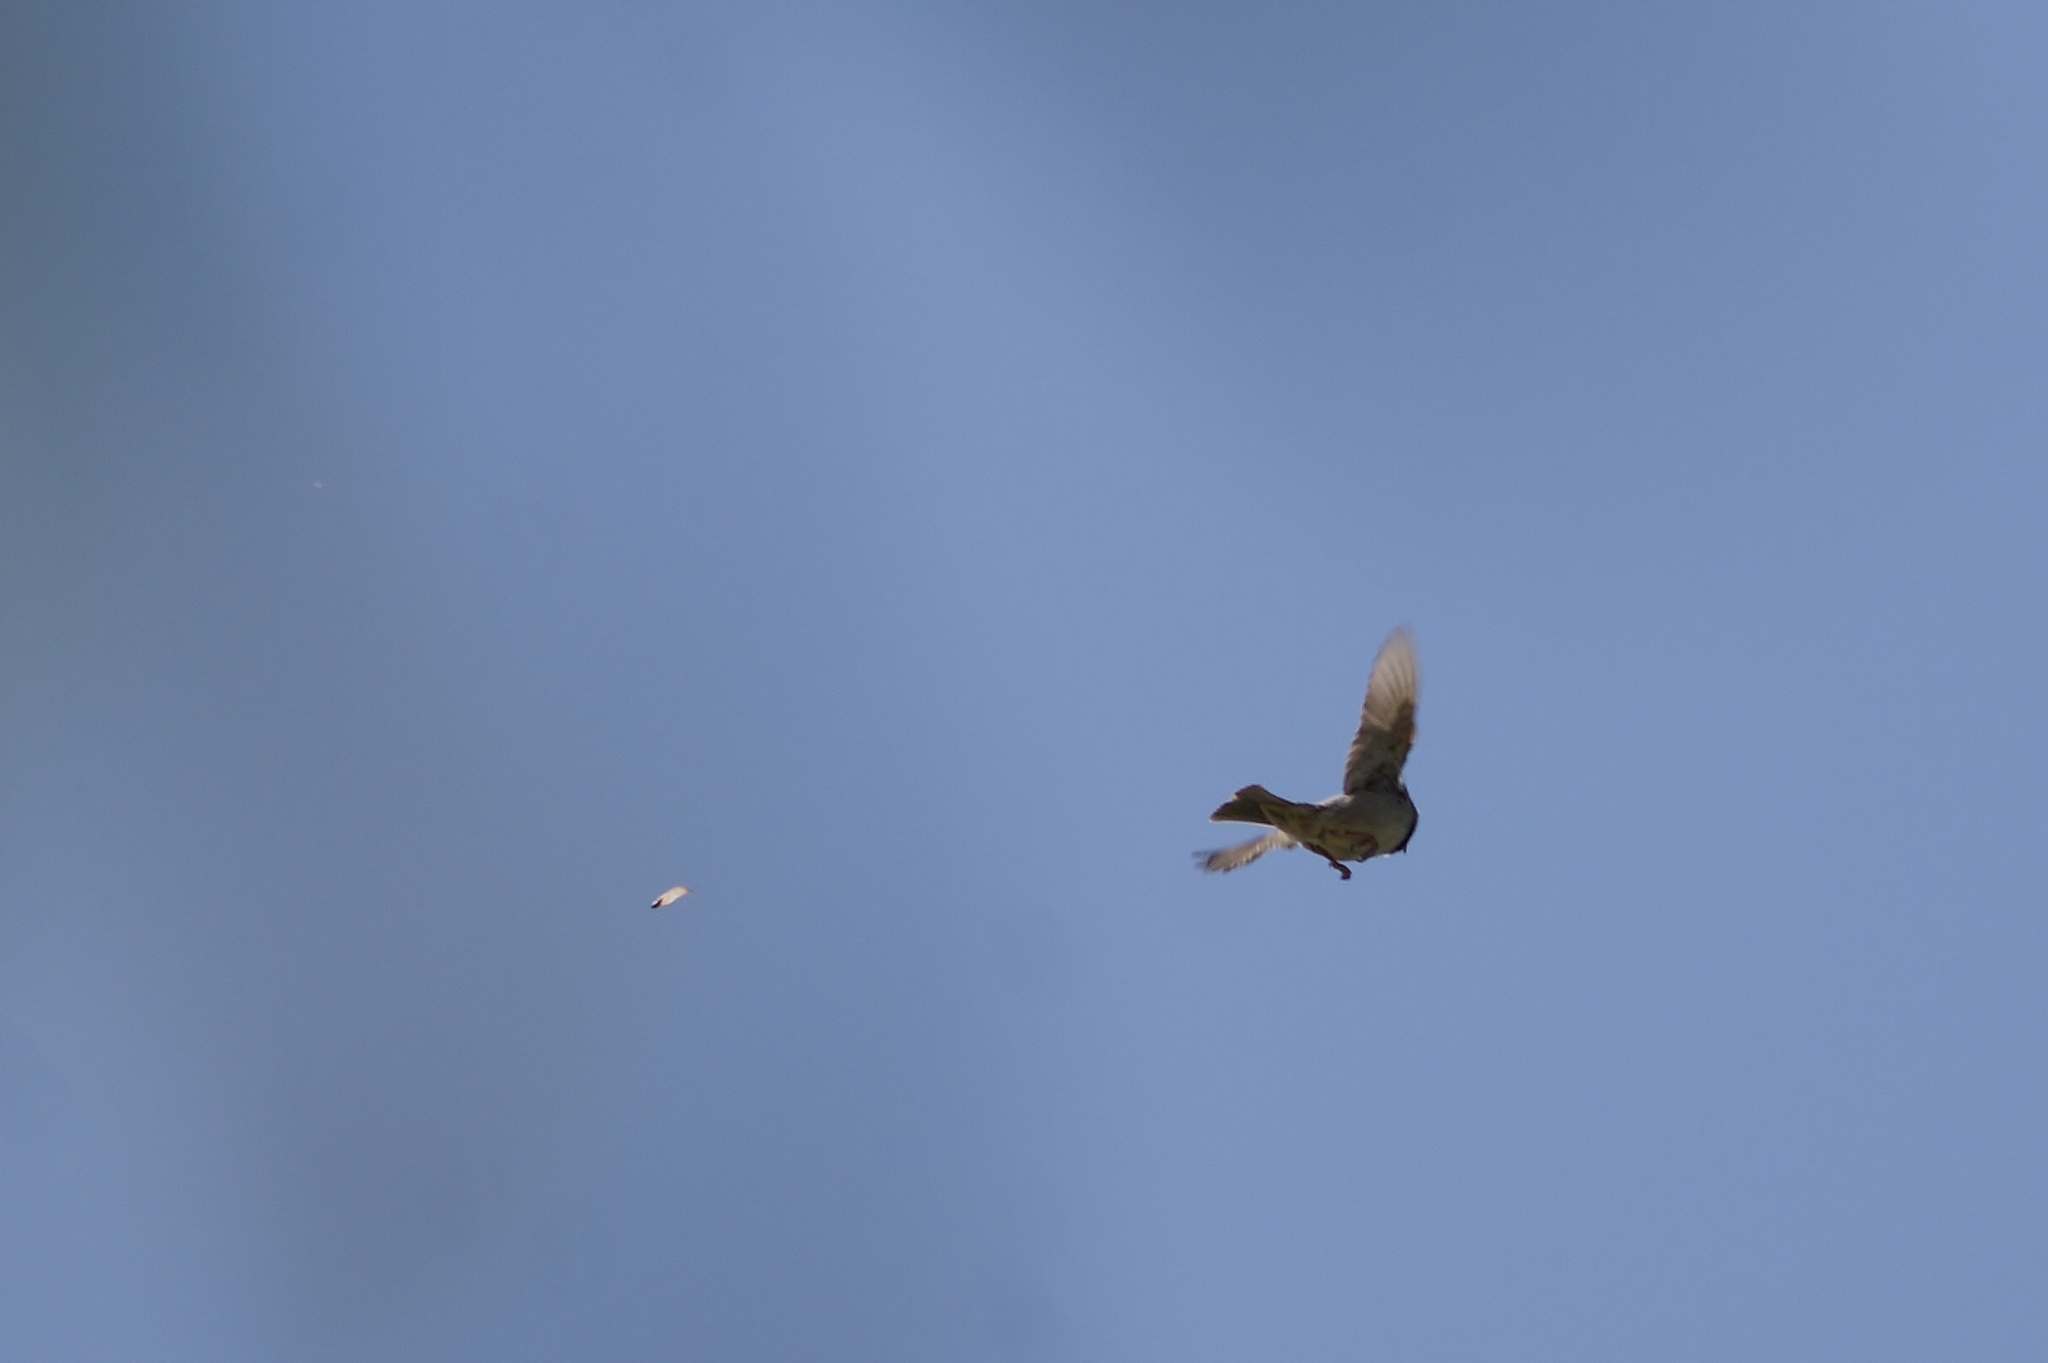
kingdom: Animalia
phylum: Chordata
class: Aves
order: Passeriformes
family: Passeridae
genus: Passer
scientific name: Passer domesticus
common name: House sparrow
